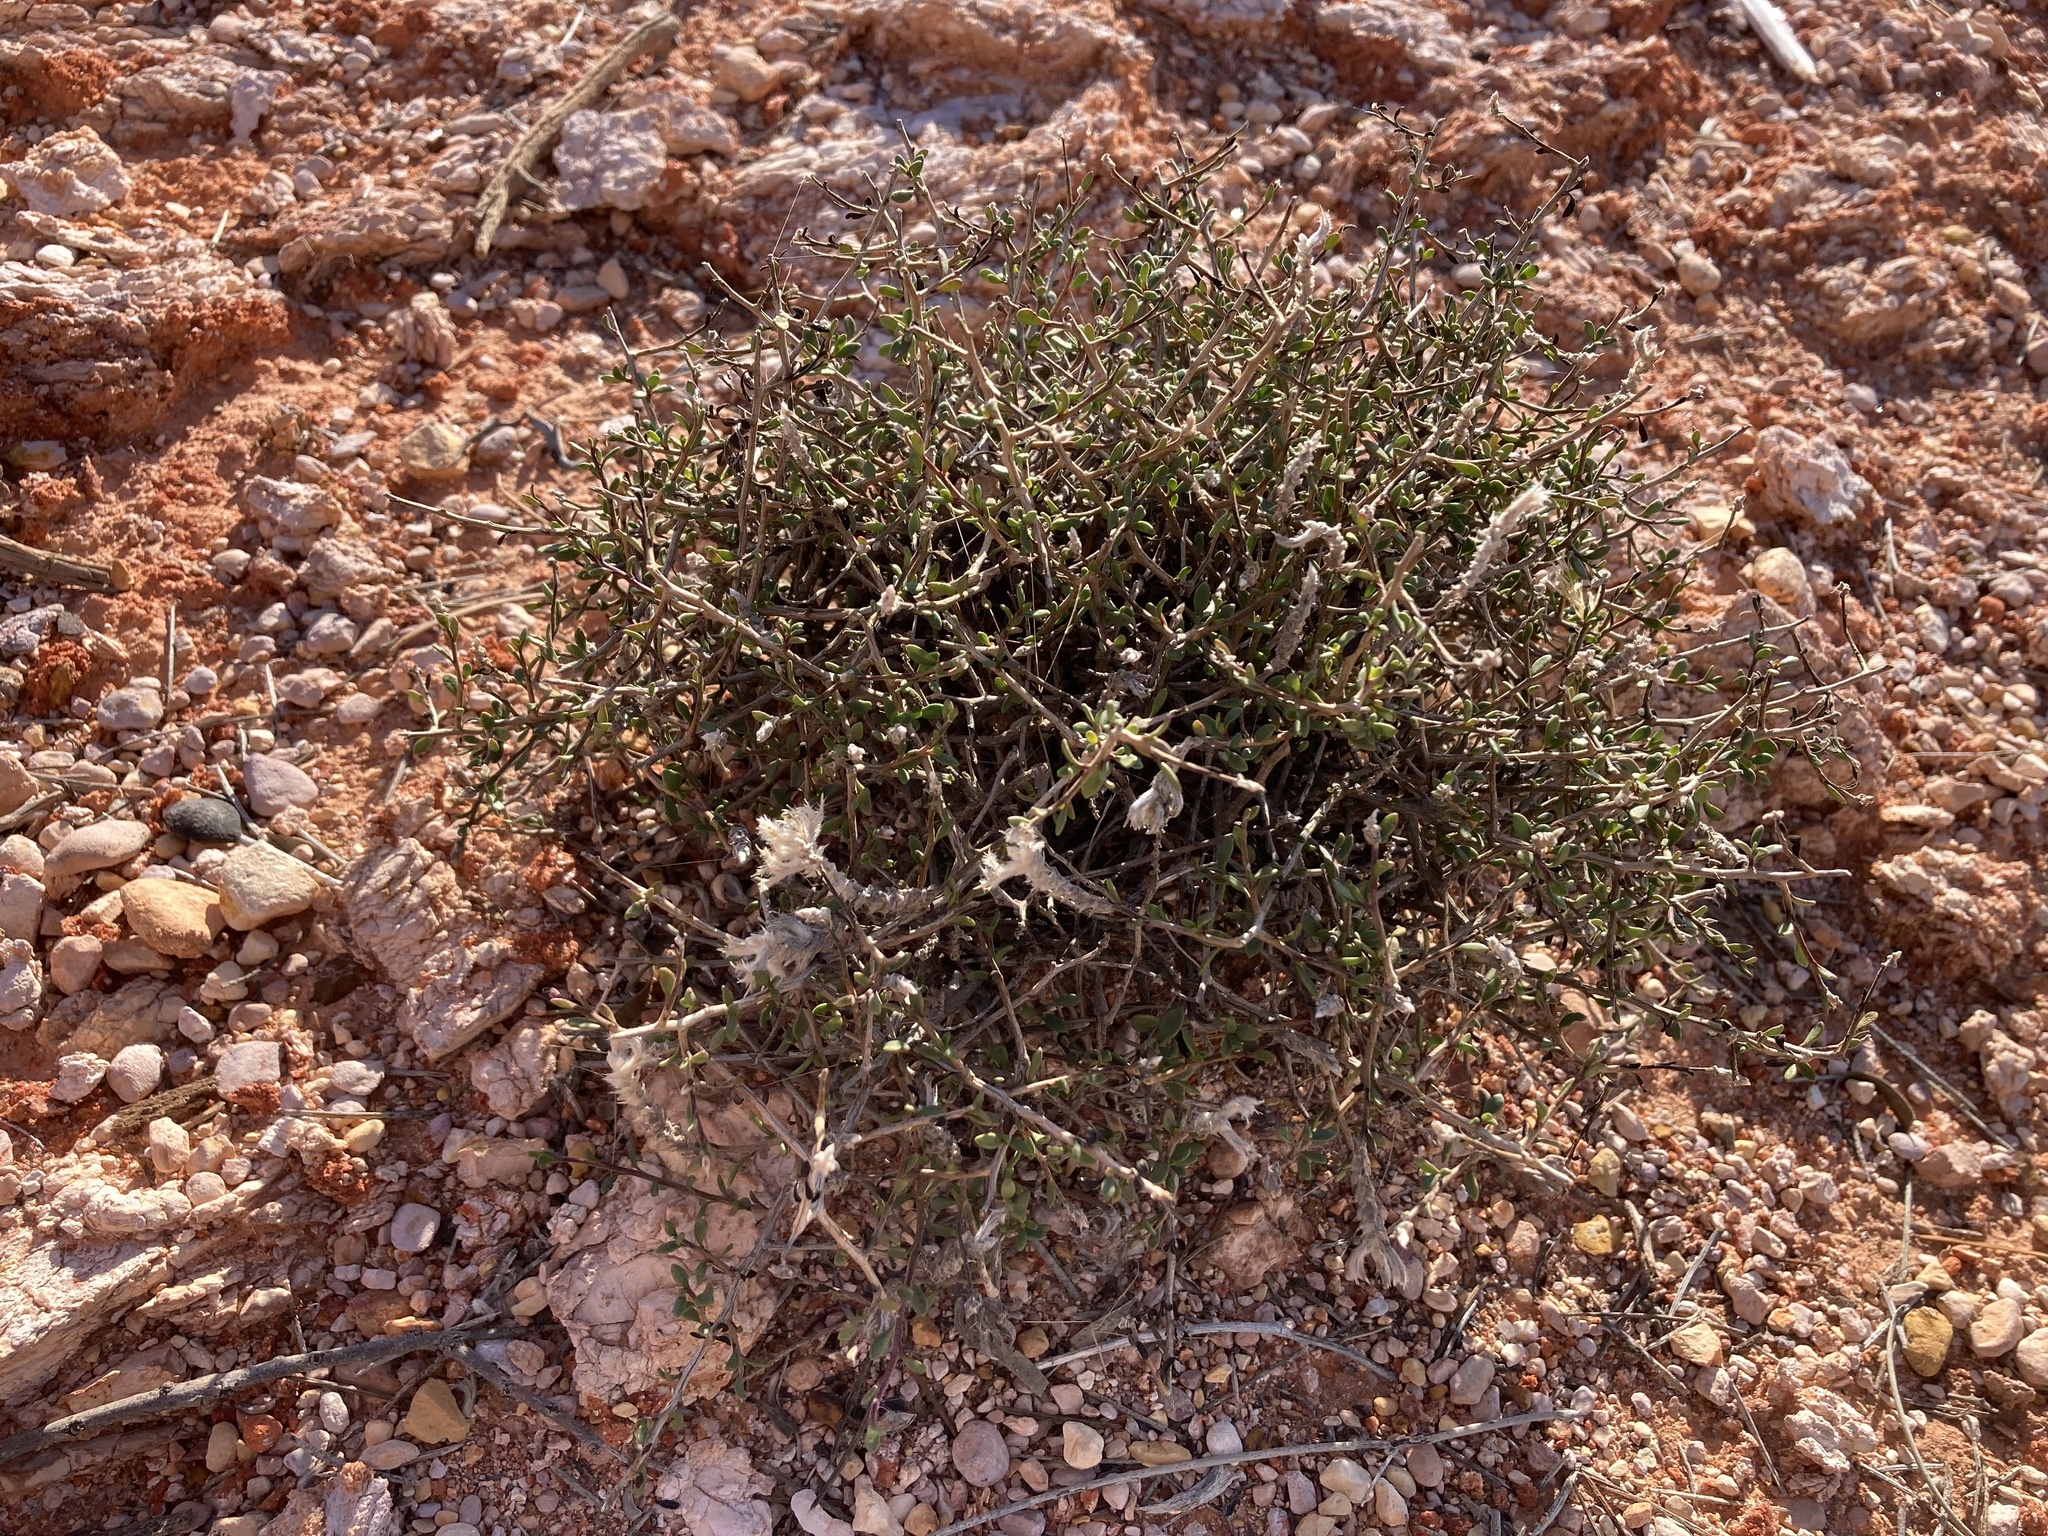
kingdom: Plantae
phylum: Tracheophyta
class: Magnoliopsida
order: Caryophyllales
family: Amaranthaceae
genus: Ptilotus
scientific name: Ptilotus barkeri
